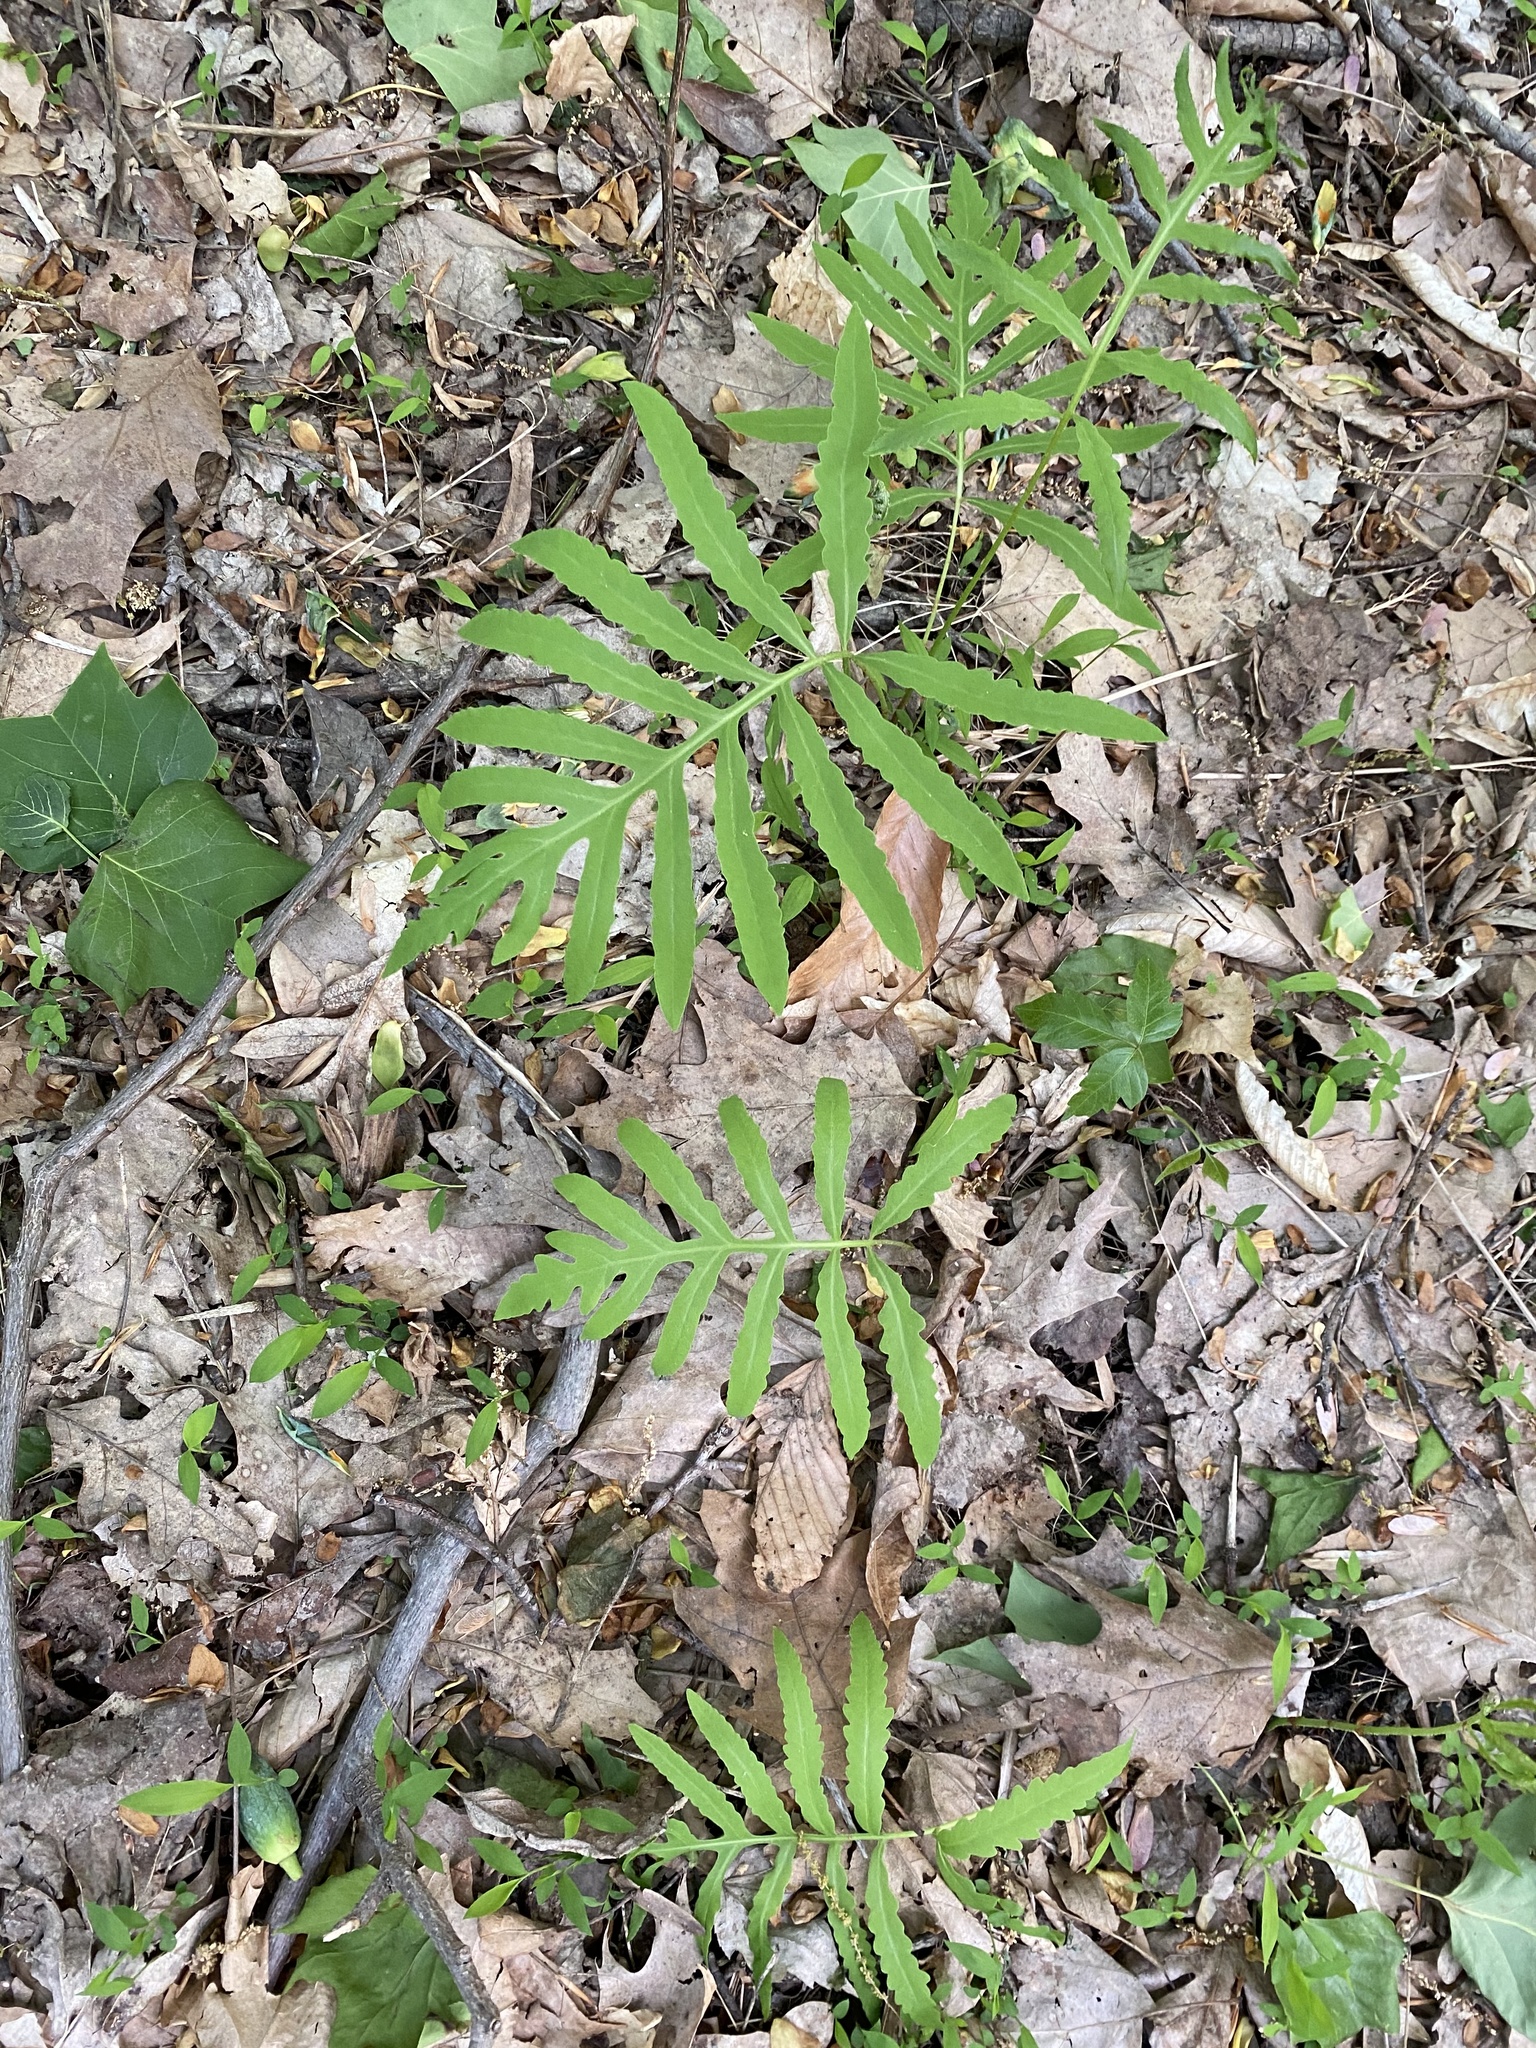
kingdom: Plantae
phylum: Tracheophyta
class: Polypodiopsida
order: Polypodiales
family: Onocleaceae
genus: Onoclea
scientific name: Onoclea sensibilis
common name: Sensitive fern
